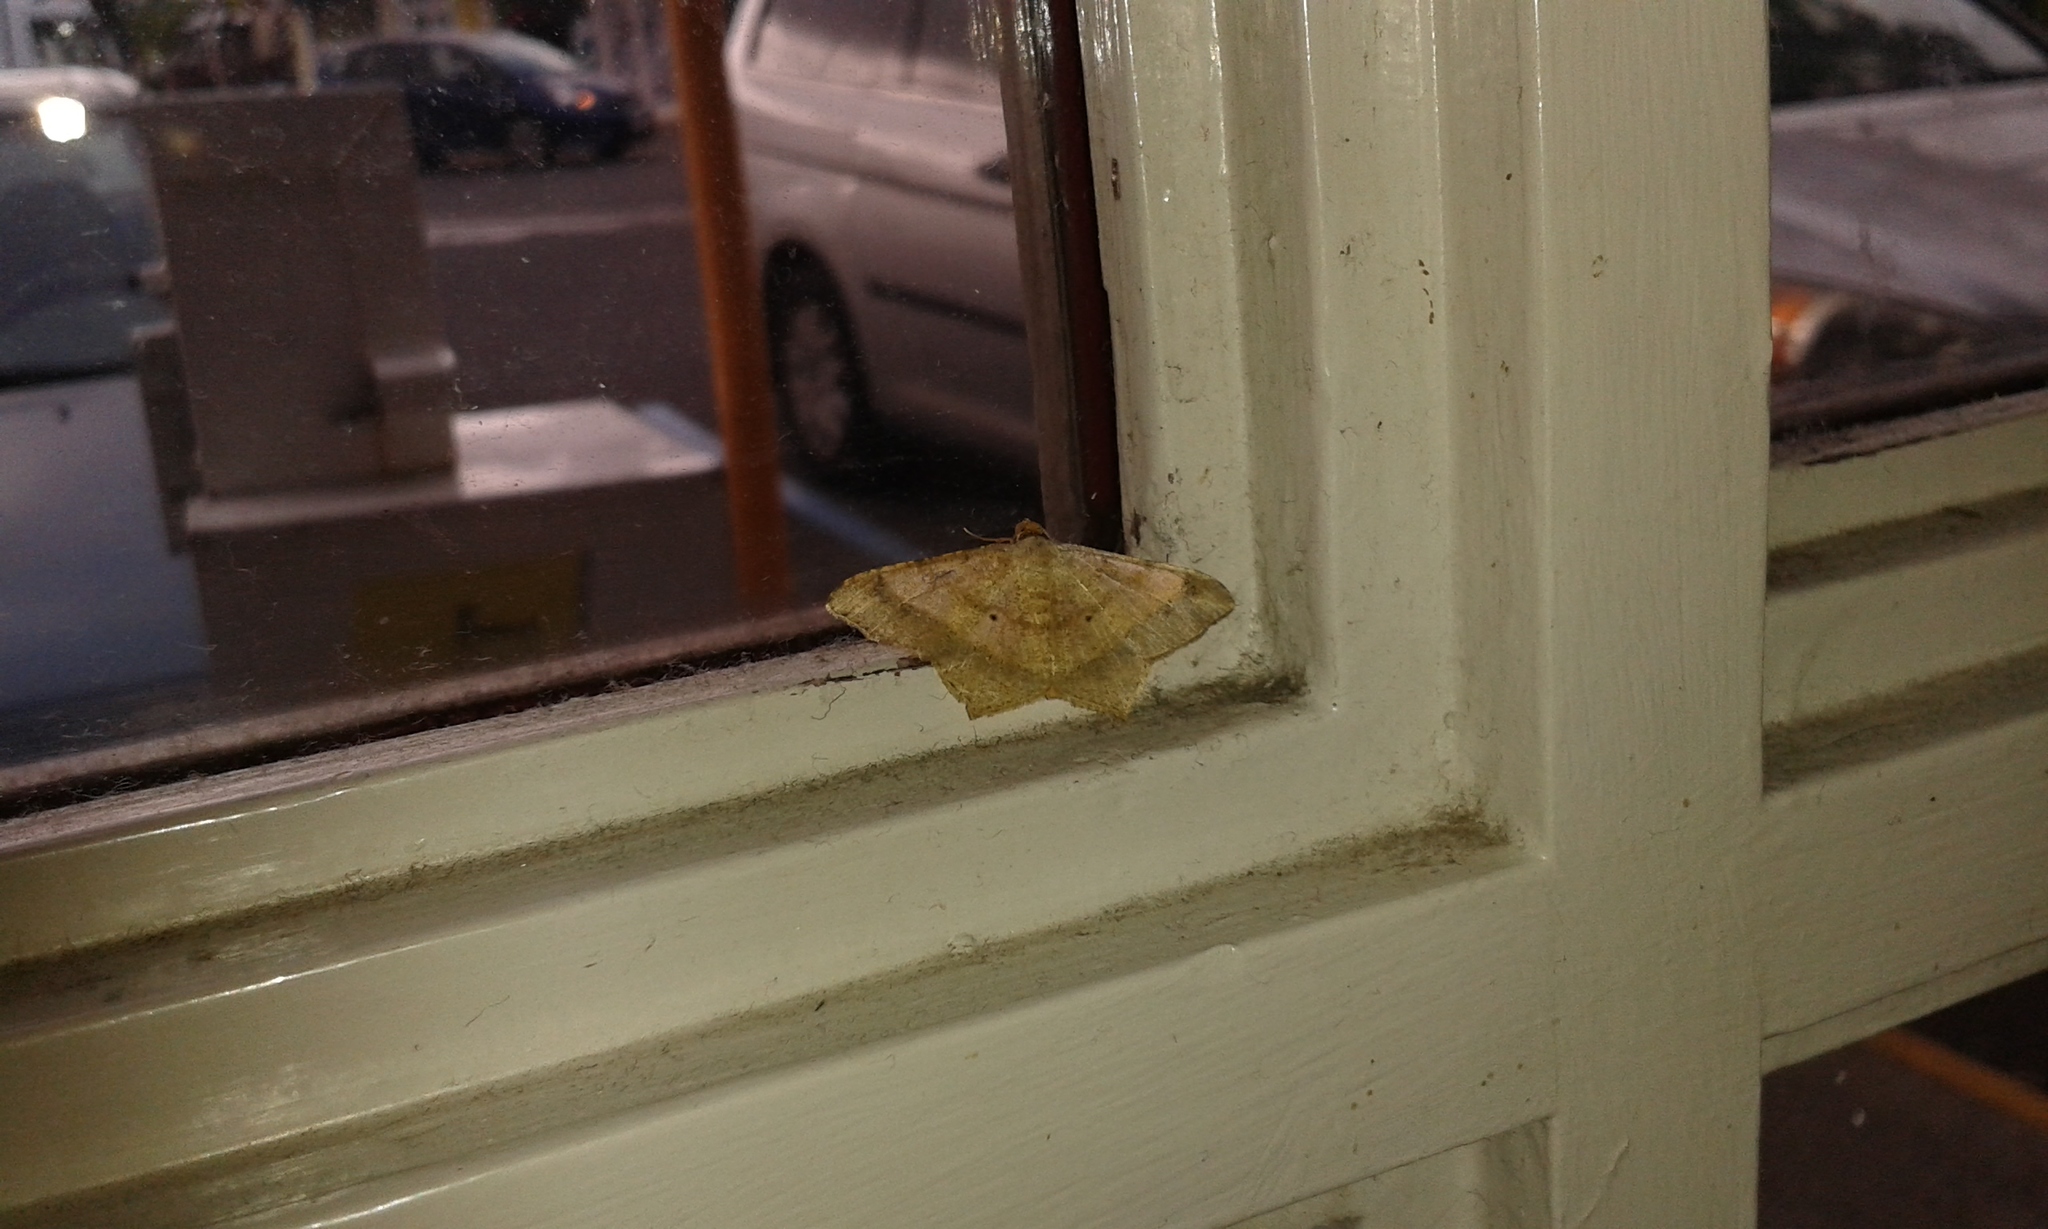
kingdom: Animalia
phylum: Arthropoda
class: Insecta
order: Lepidoptera
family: Geometridae
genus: Macaria
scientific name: Macaria abydata
